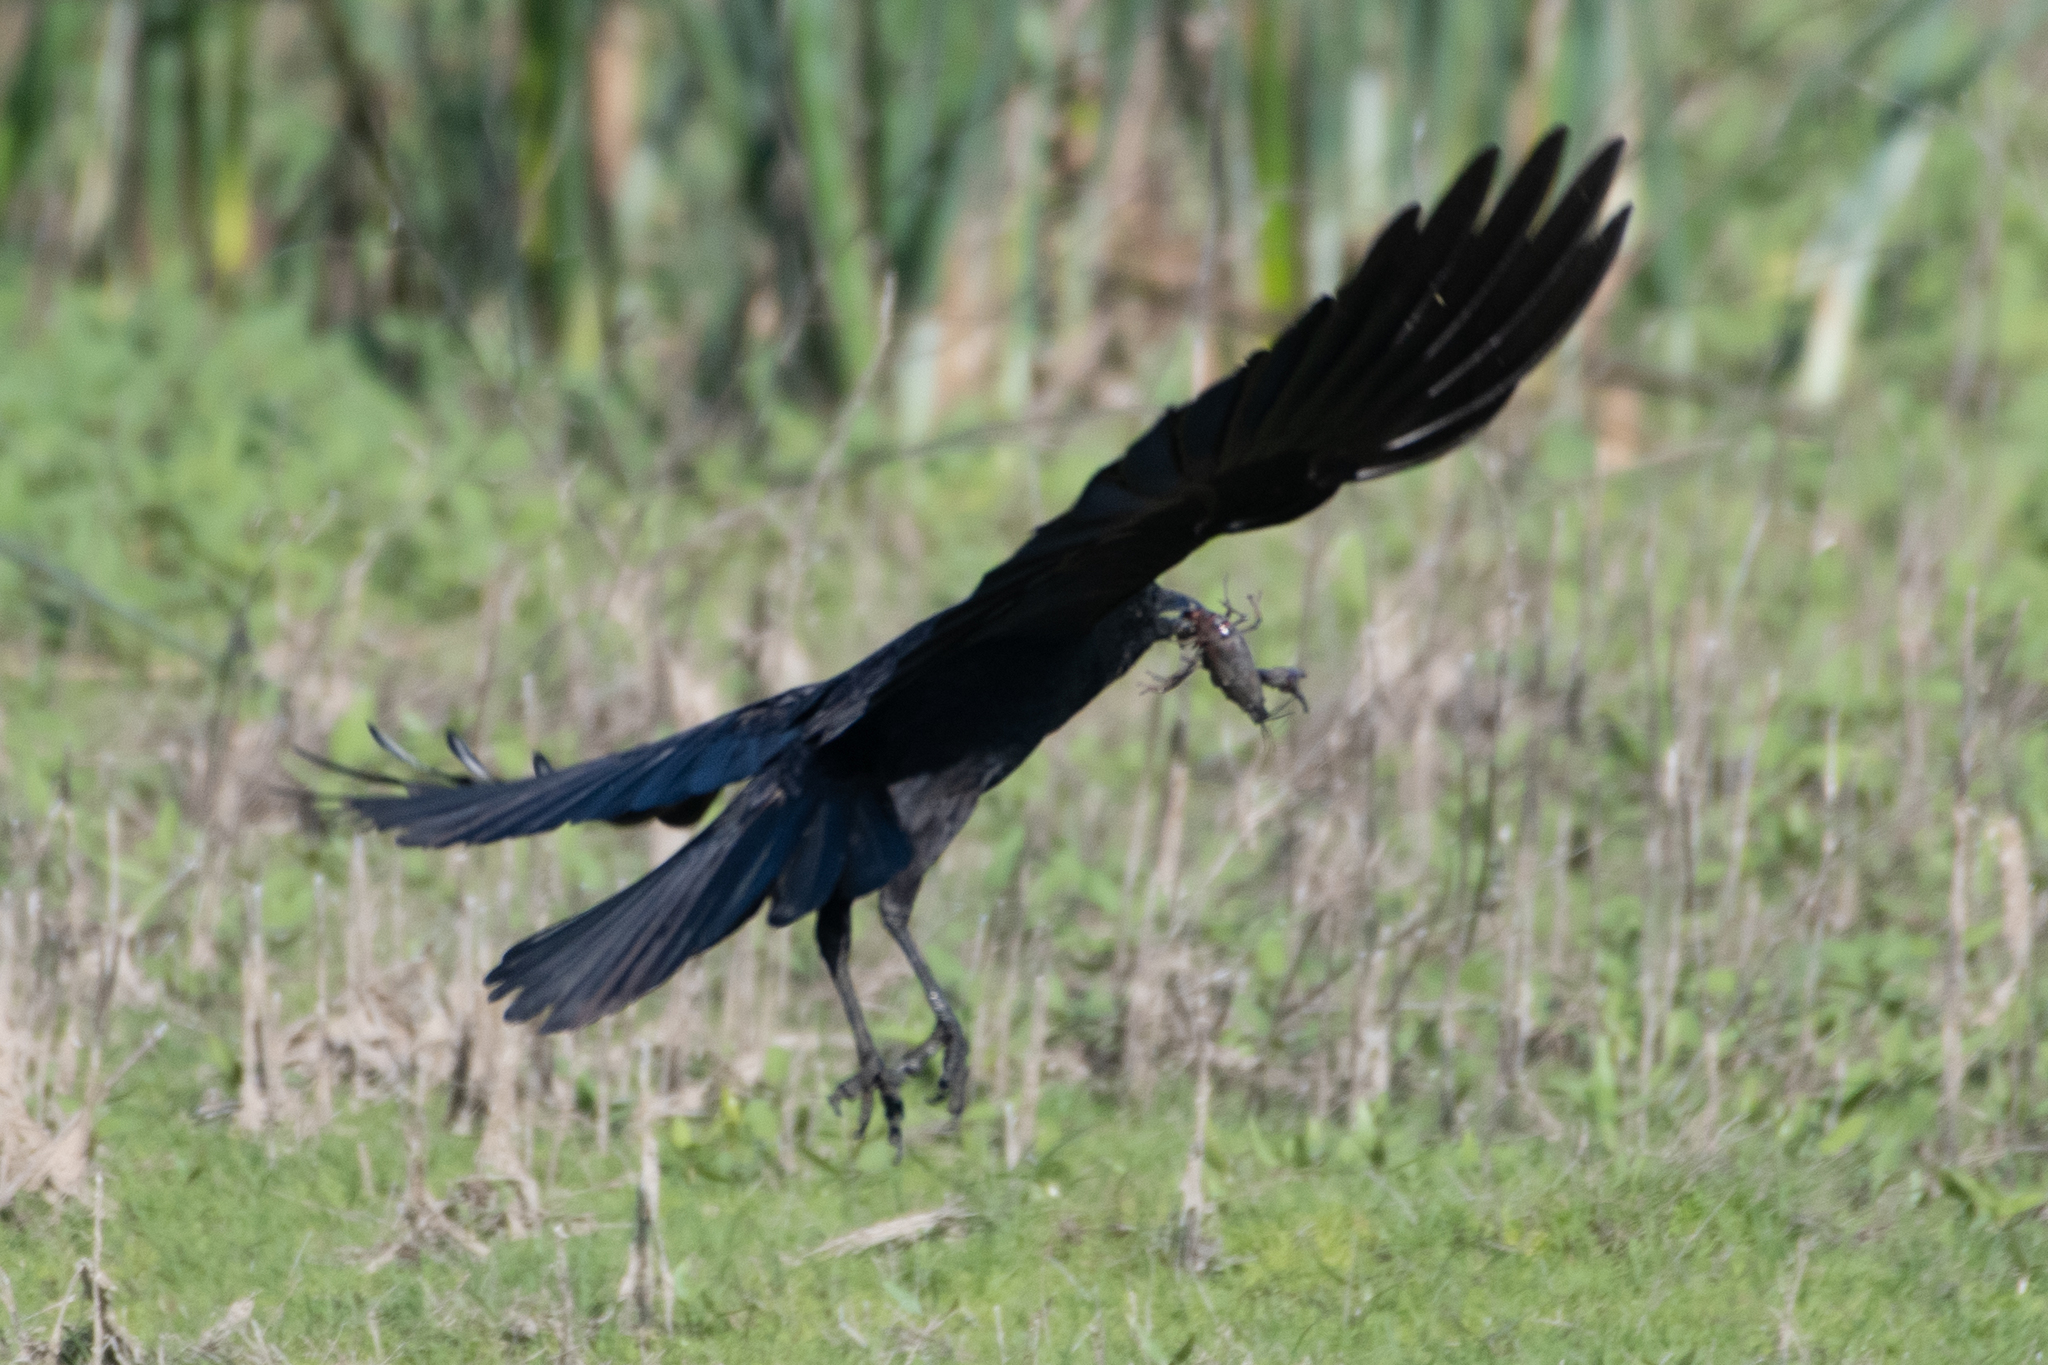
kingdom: Animalia
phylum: Chordata
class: Aves
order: Passeriformes
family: Corvidae
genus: Corvus
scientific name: Corvus corax
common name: Common raven
